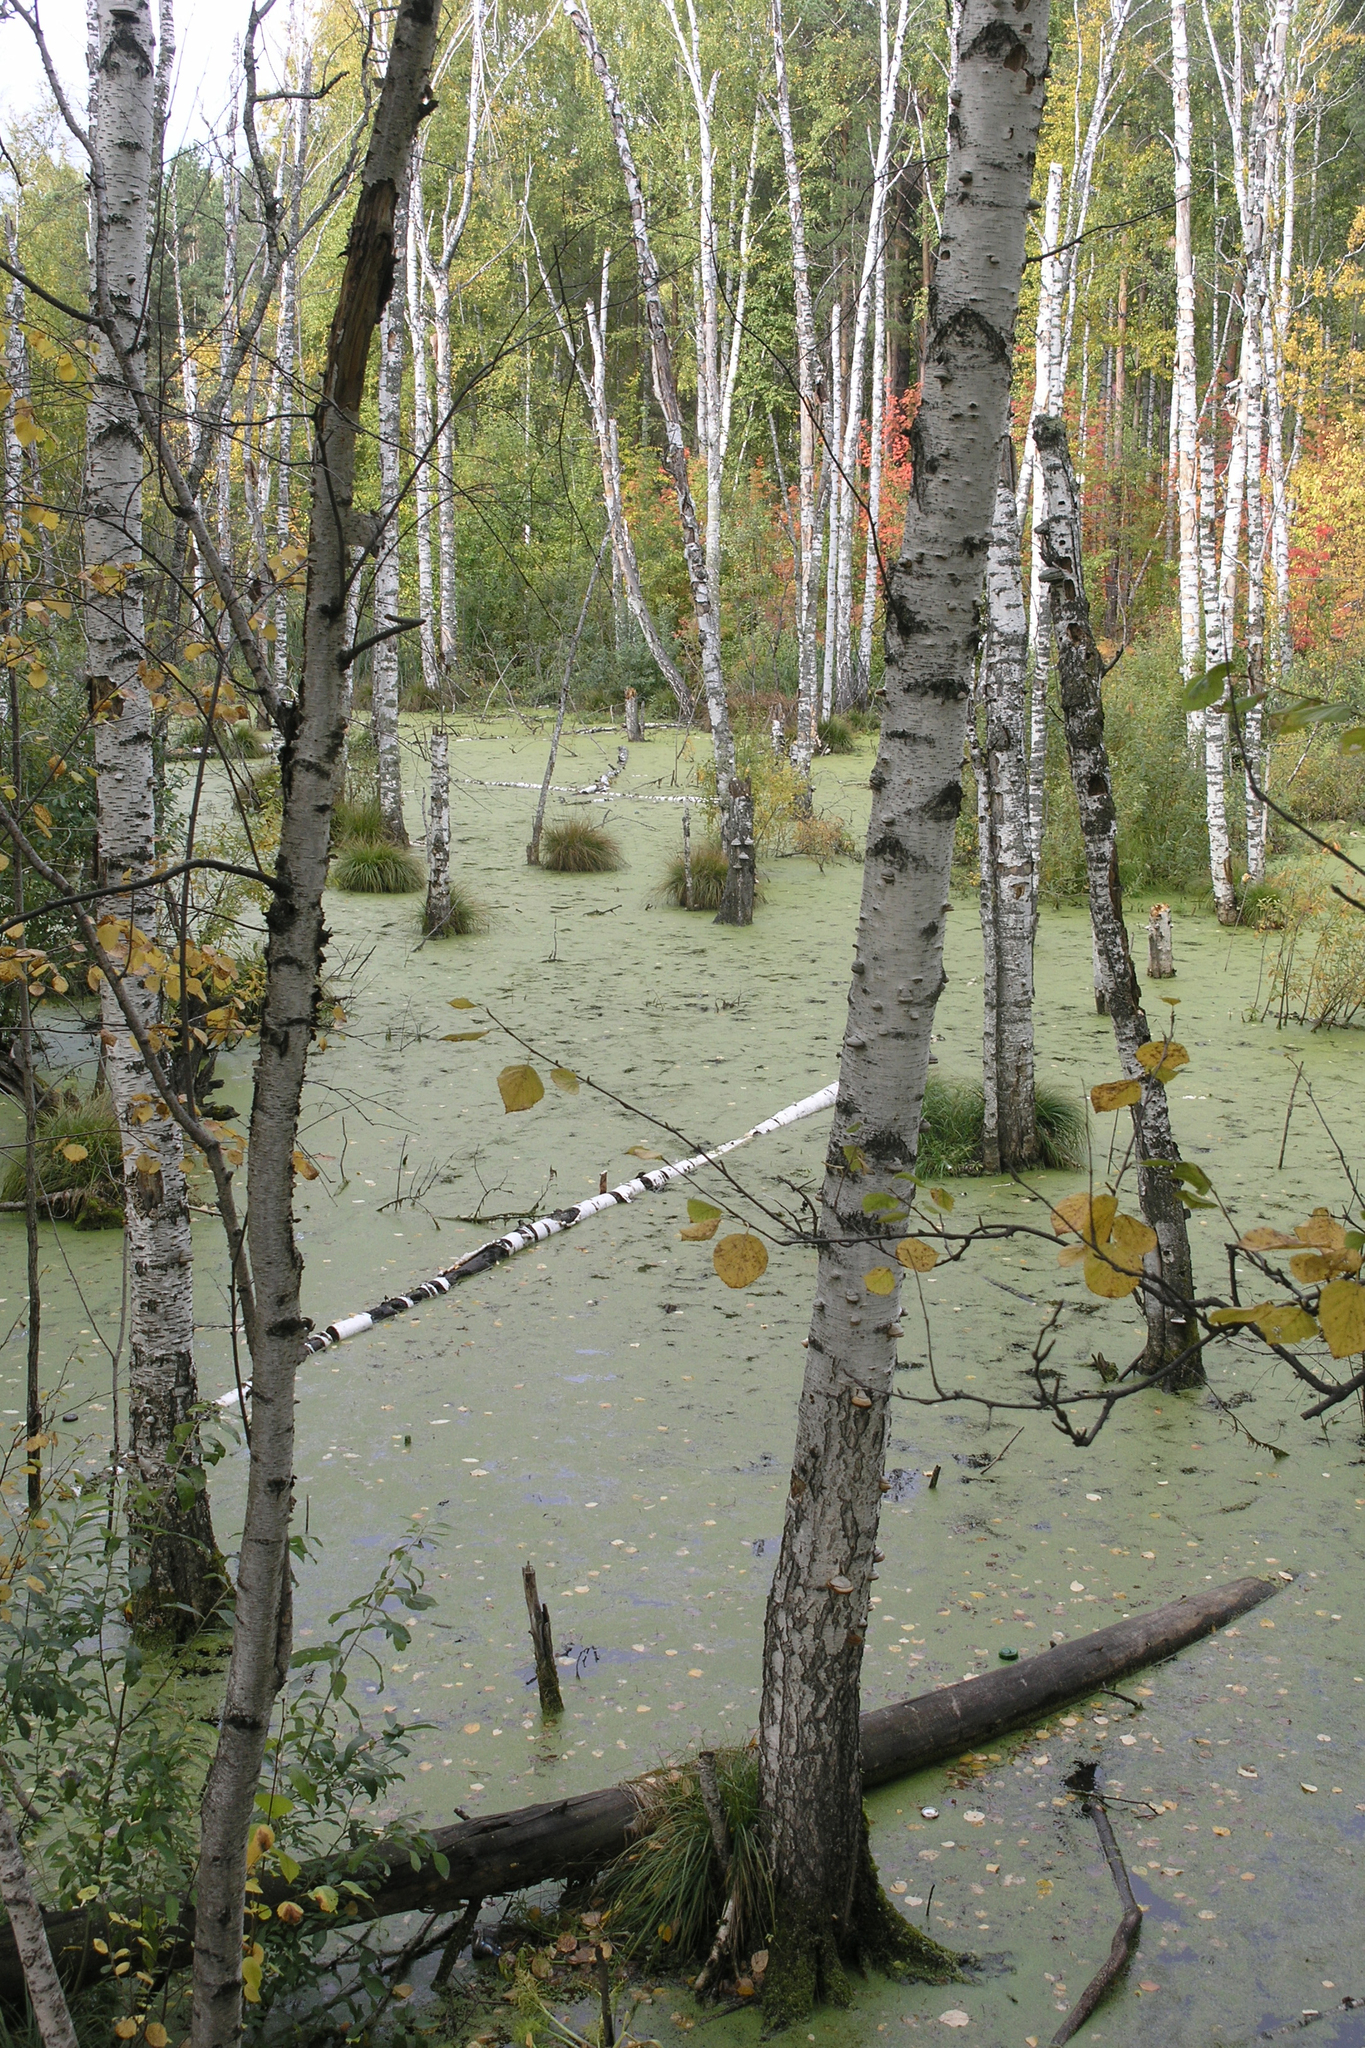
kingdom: Plantae
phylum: Tracheophyta
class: Magnoliopsida
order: Fagales
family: Betulaceae
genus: Betula
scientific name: Betula pendula
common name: Silver birch
